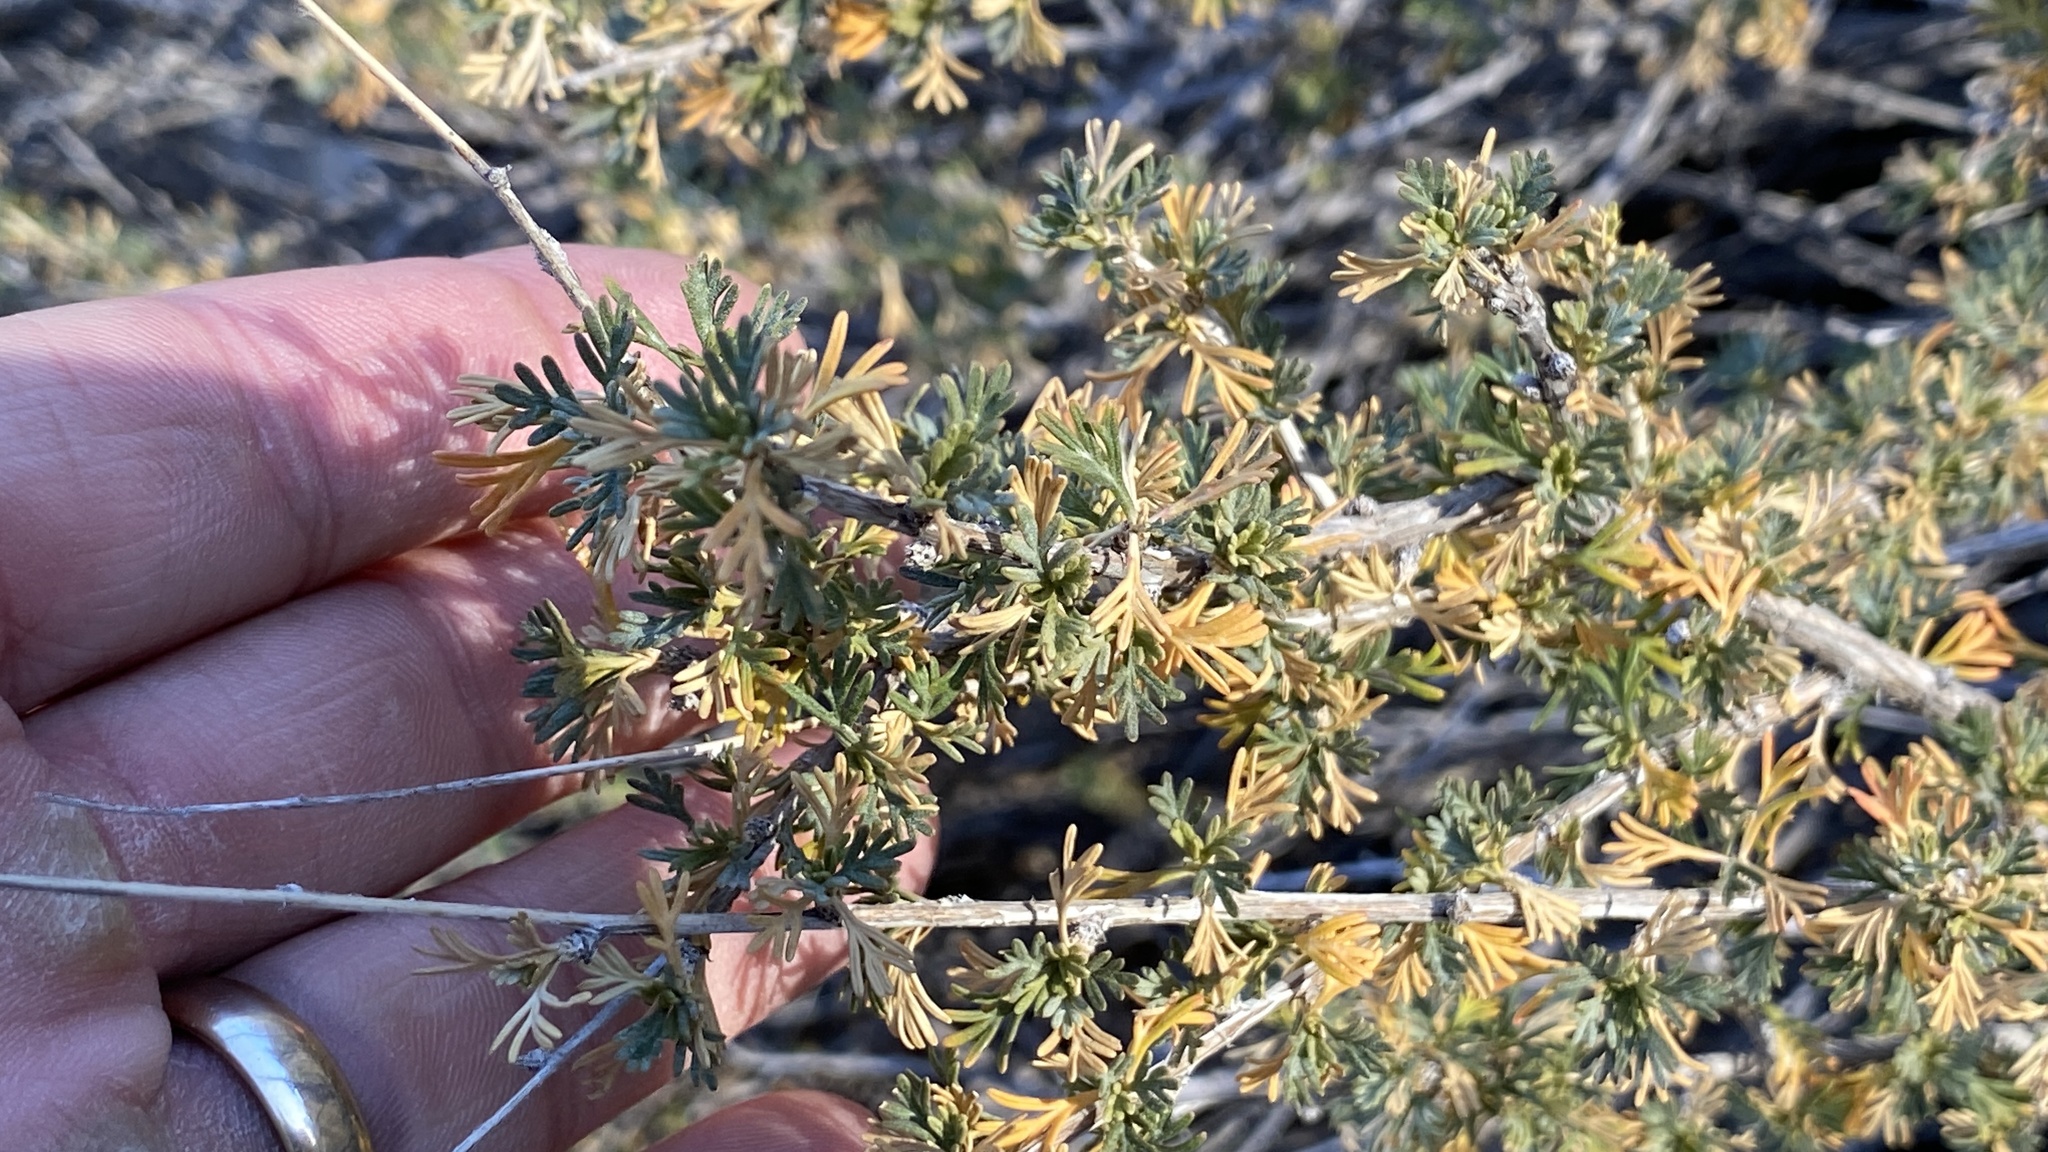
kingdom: Plantae
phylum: Tracheophyta
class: Magnoliopsida
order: Rosales
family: Rosaceae
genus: Fallugia
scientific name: Fallugia paradoxa
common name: Apache-plume
